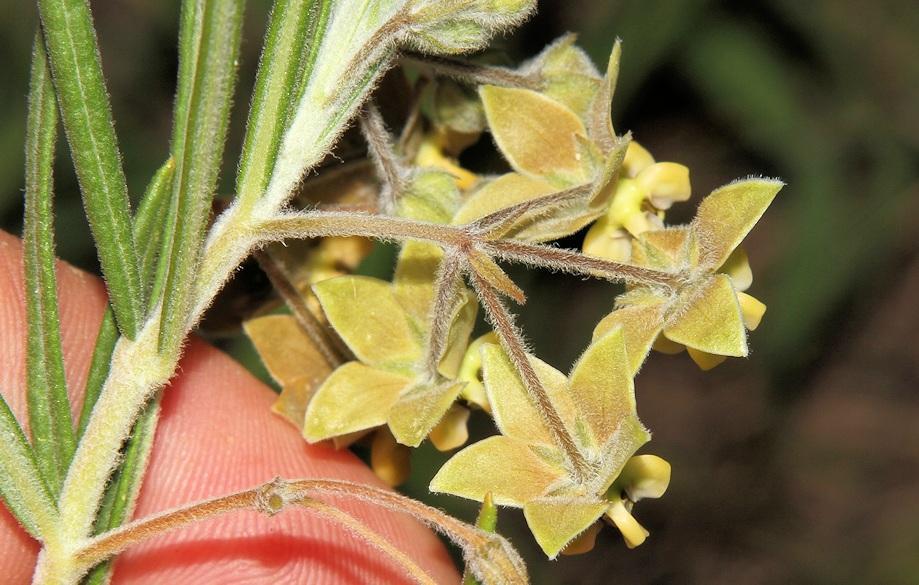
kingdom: Plantae
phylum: Tracheophyta
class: Magnoliopsida
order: Gentianales
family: Apocynaceae
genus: Gomphocarpus
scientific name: Gomphocarpus tomentosus
